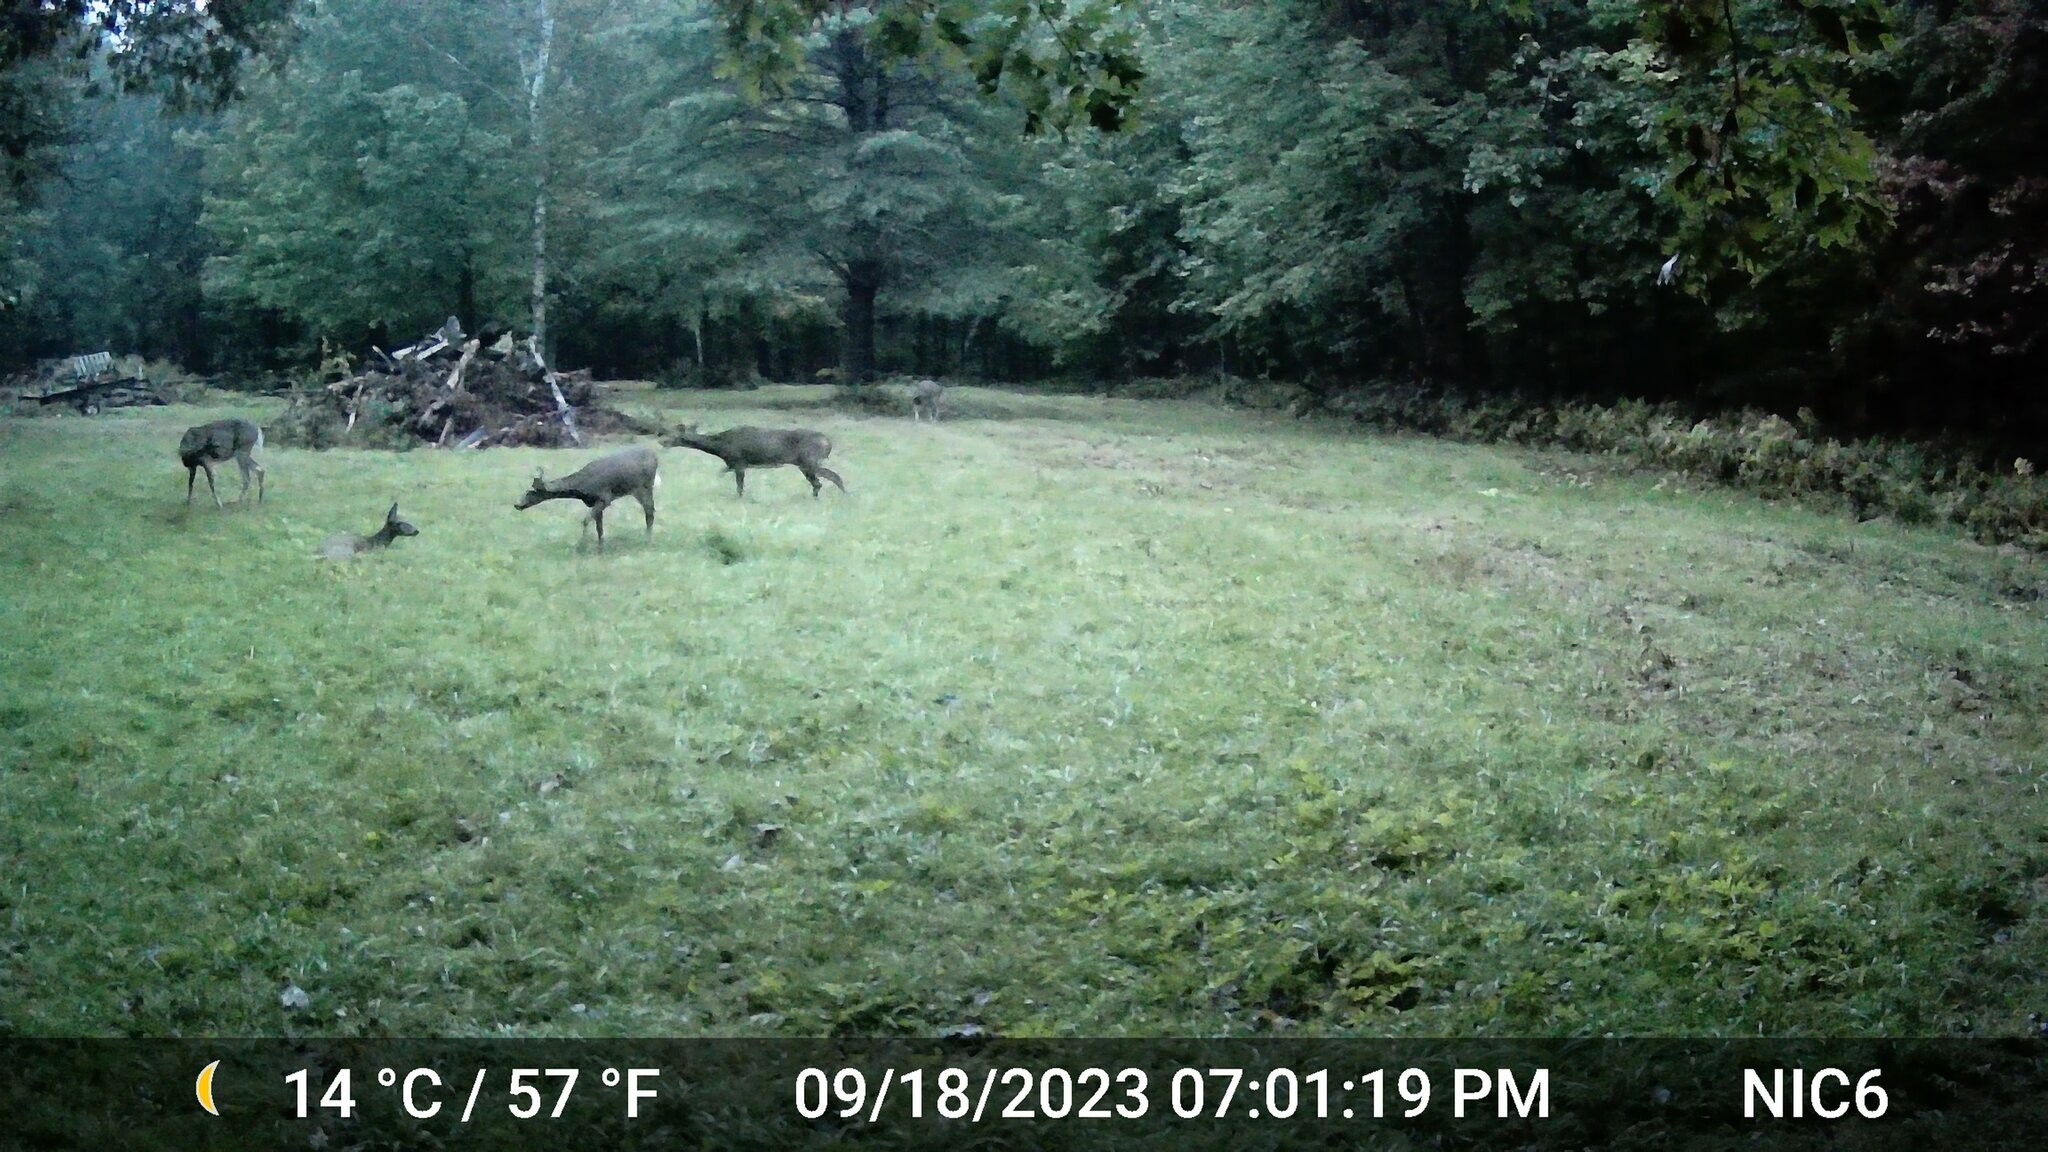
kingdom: Animalia
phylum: Chordata
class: Mammalia
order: Artiodactyla
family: Cervidae
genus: Odocoileus
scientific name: Odocoileus virginianus
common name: White-tailed deer
